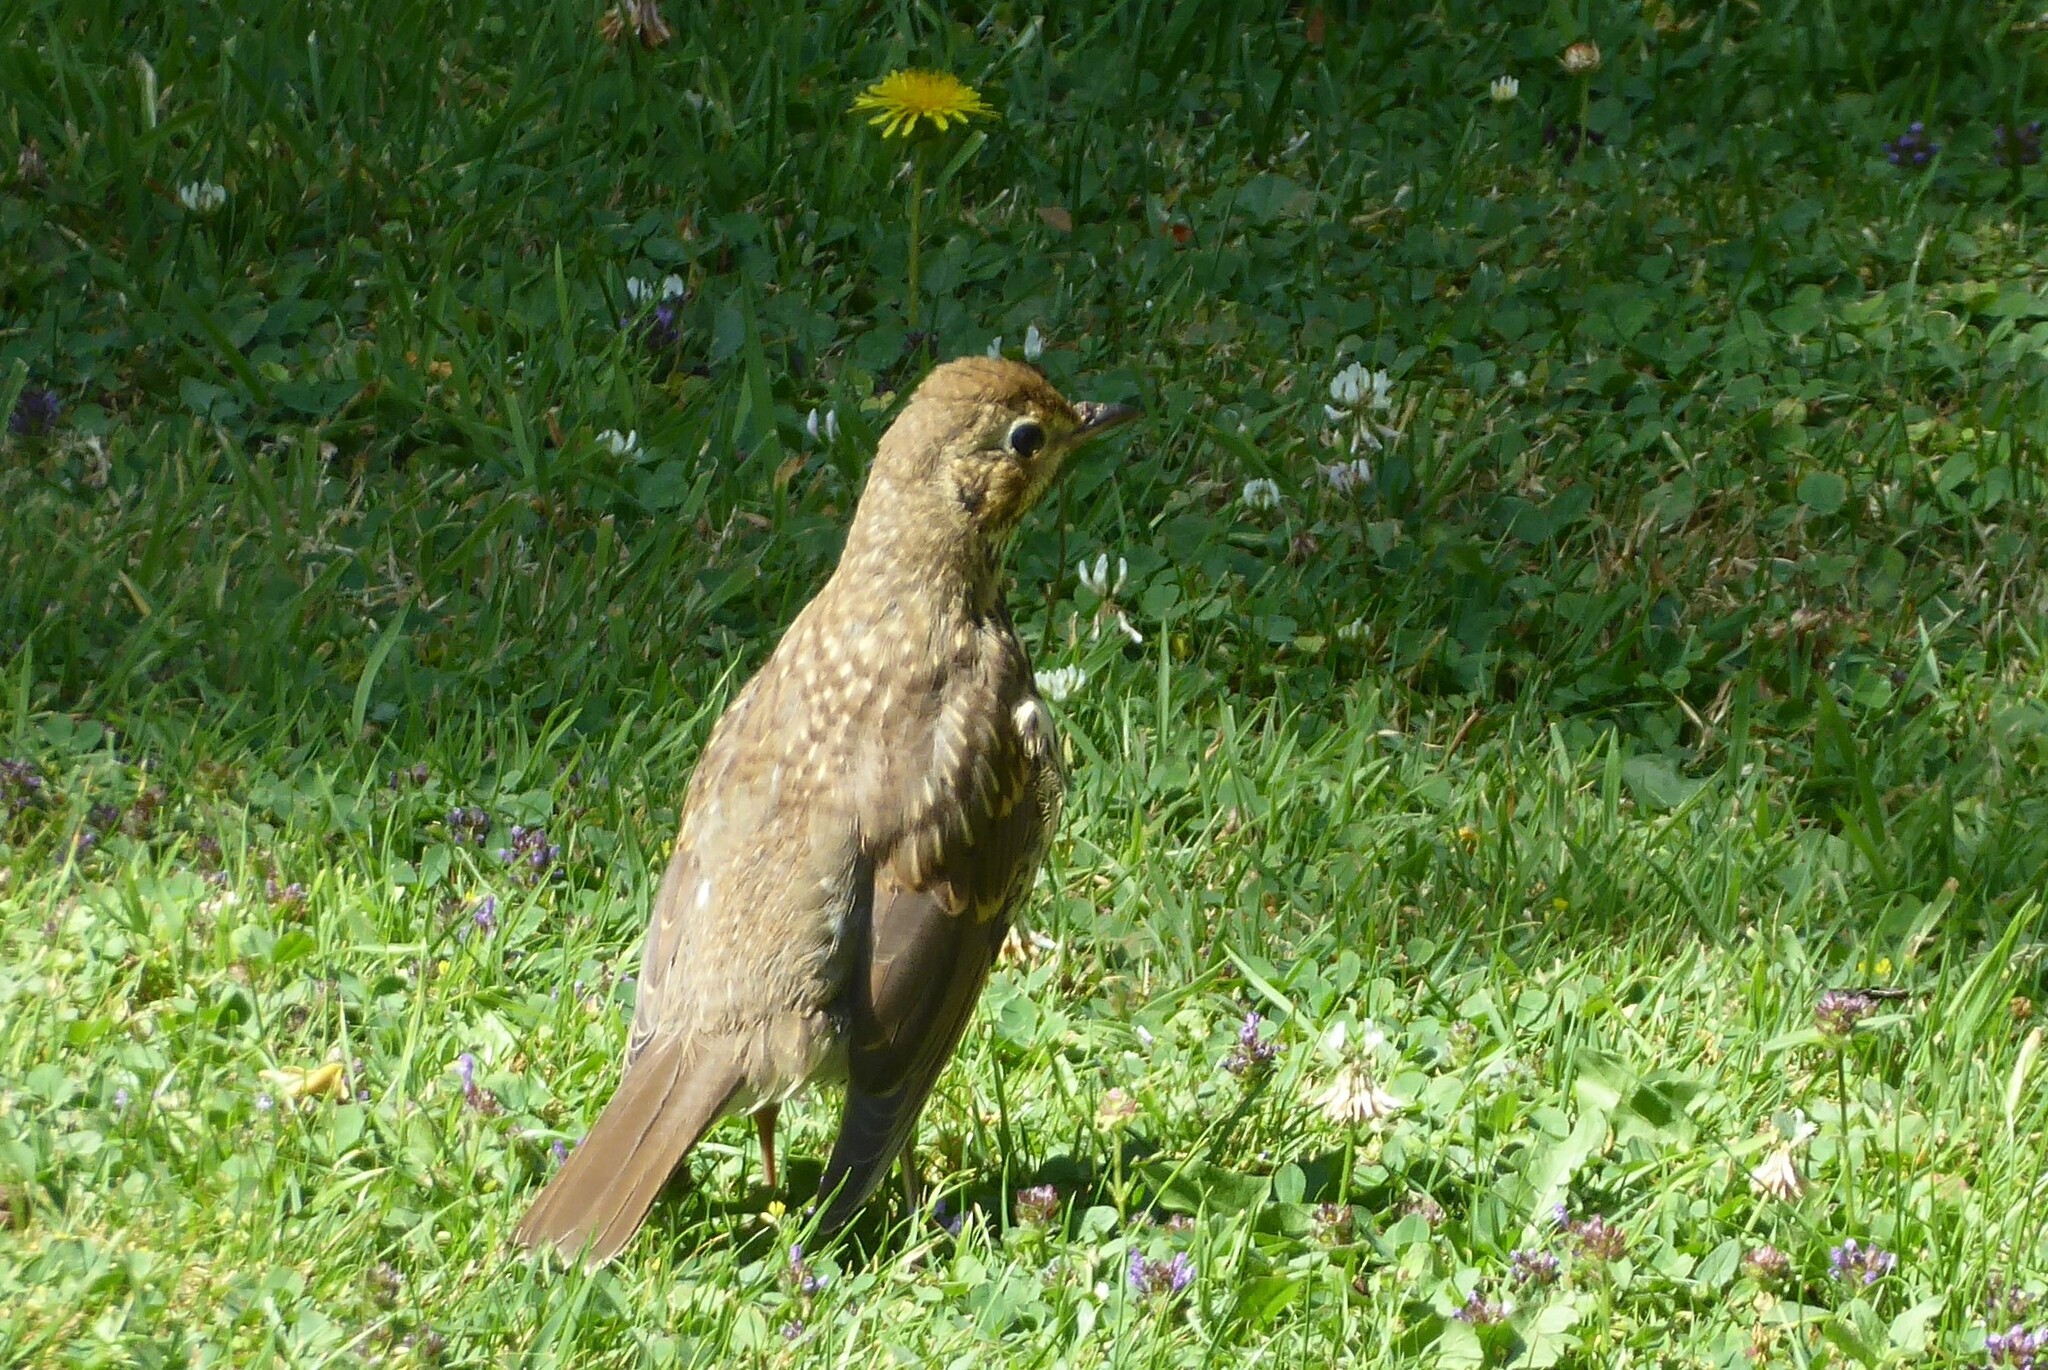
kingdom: Animalia
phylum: Chordata
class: Aves
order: Passeriformes
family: Turdidae
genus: Turdus
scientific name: Turdus philomelos
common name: Song thrush
